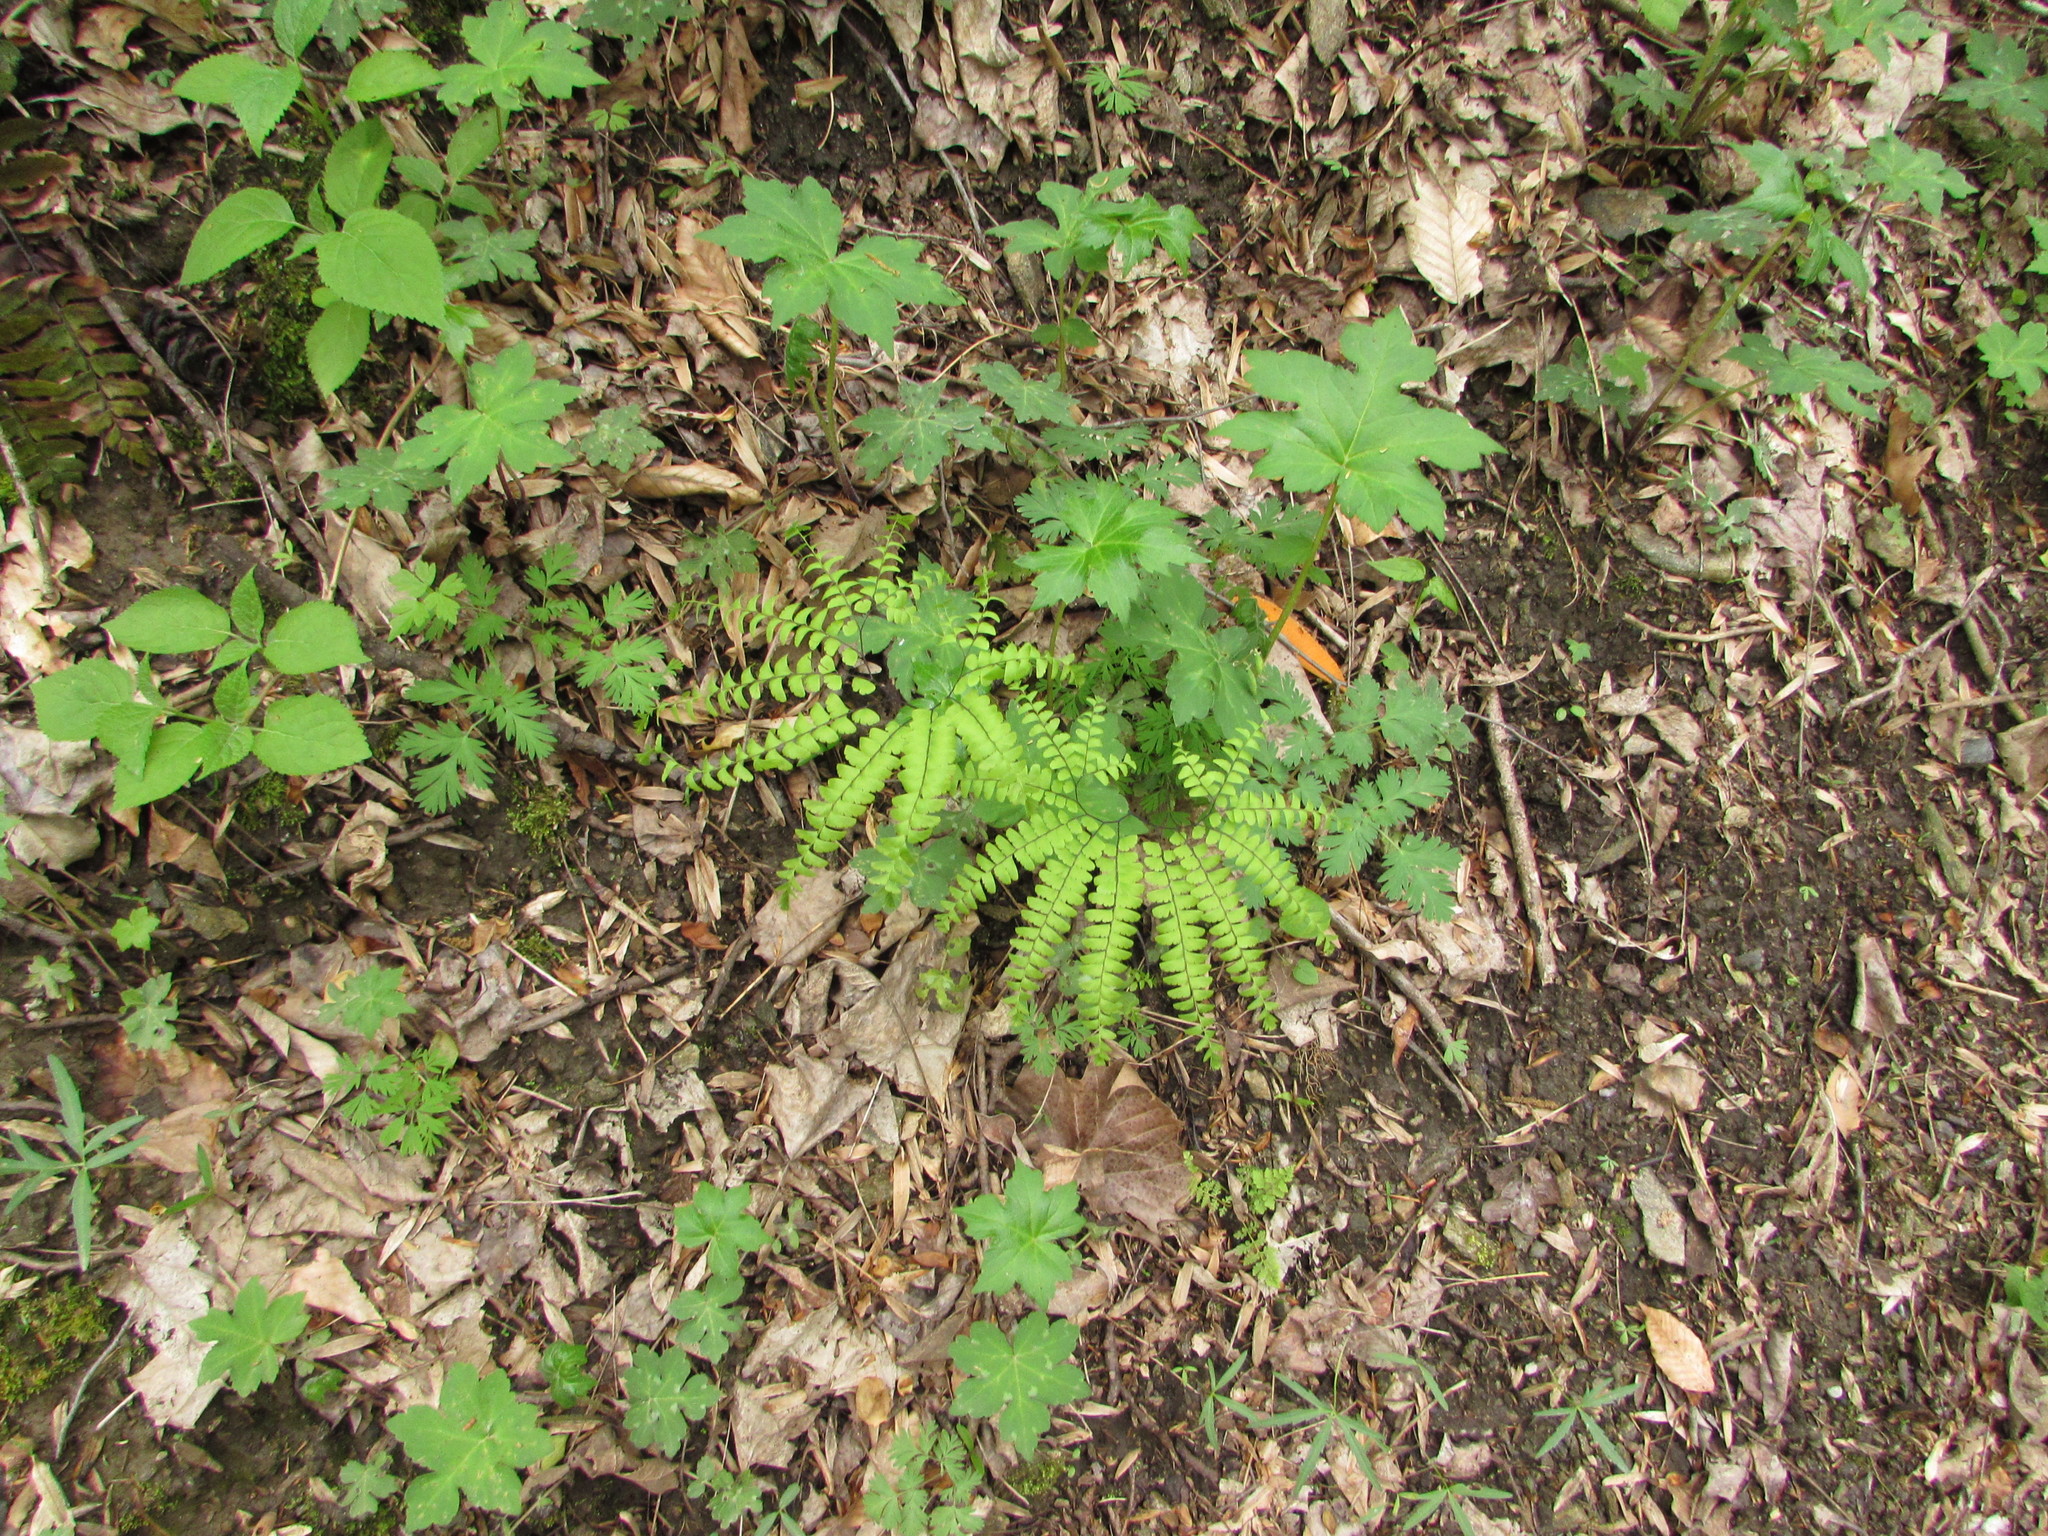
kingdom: Plantae
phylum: Tracheophyta
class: Polypodiopsida
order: Polypodiales
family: Pteridaceae
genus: Adiantum
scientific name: Adiantum pedatum
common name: Five-finger fern
